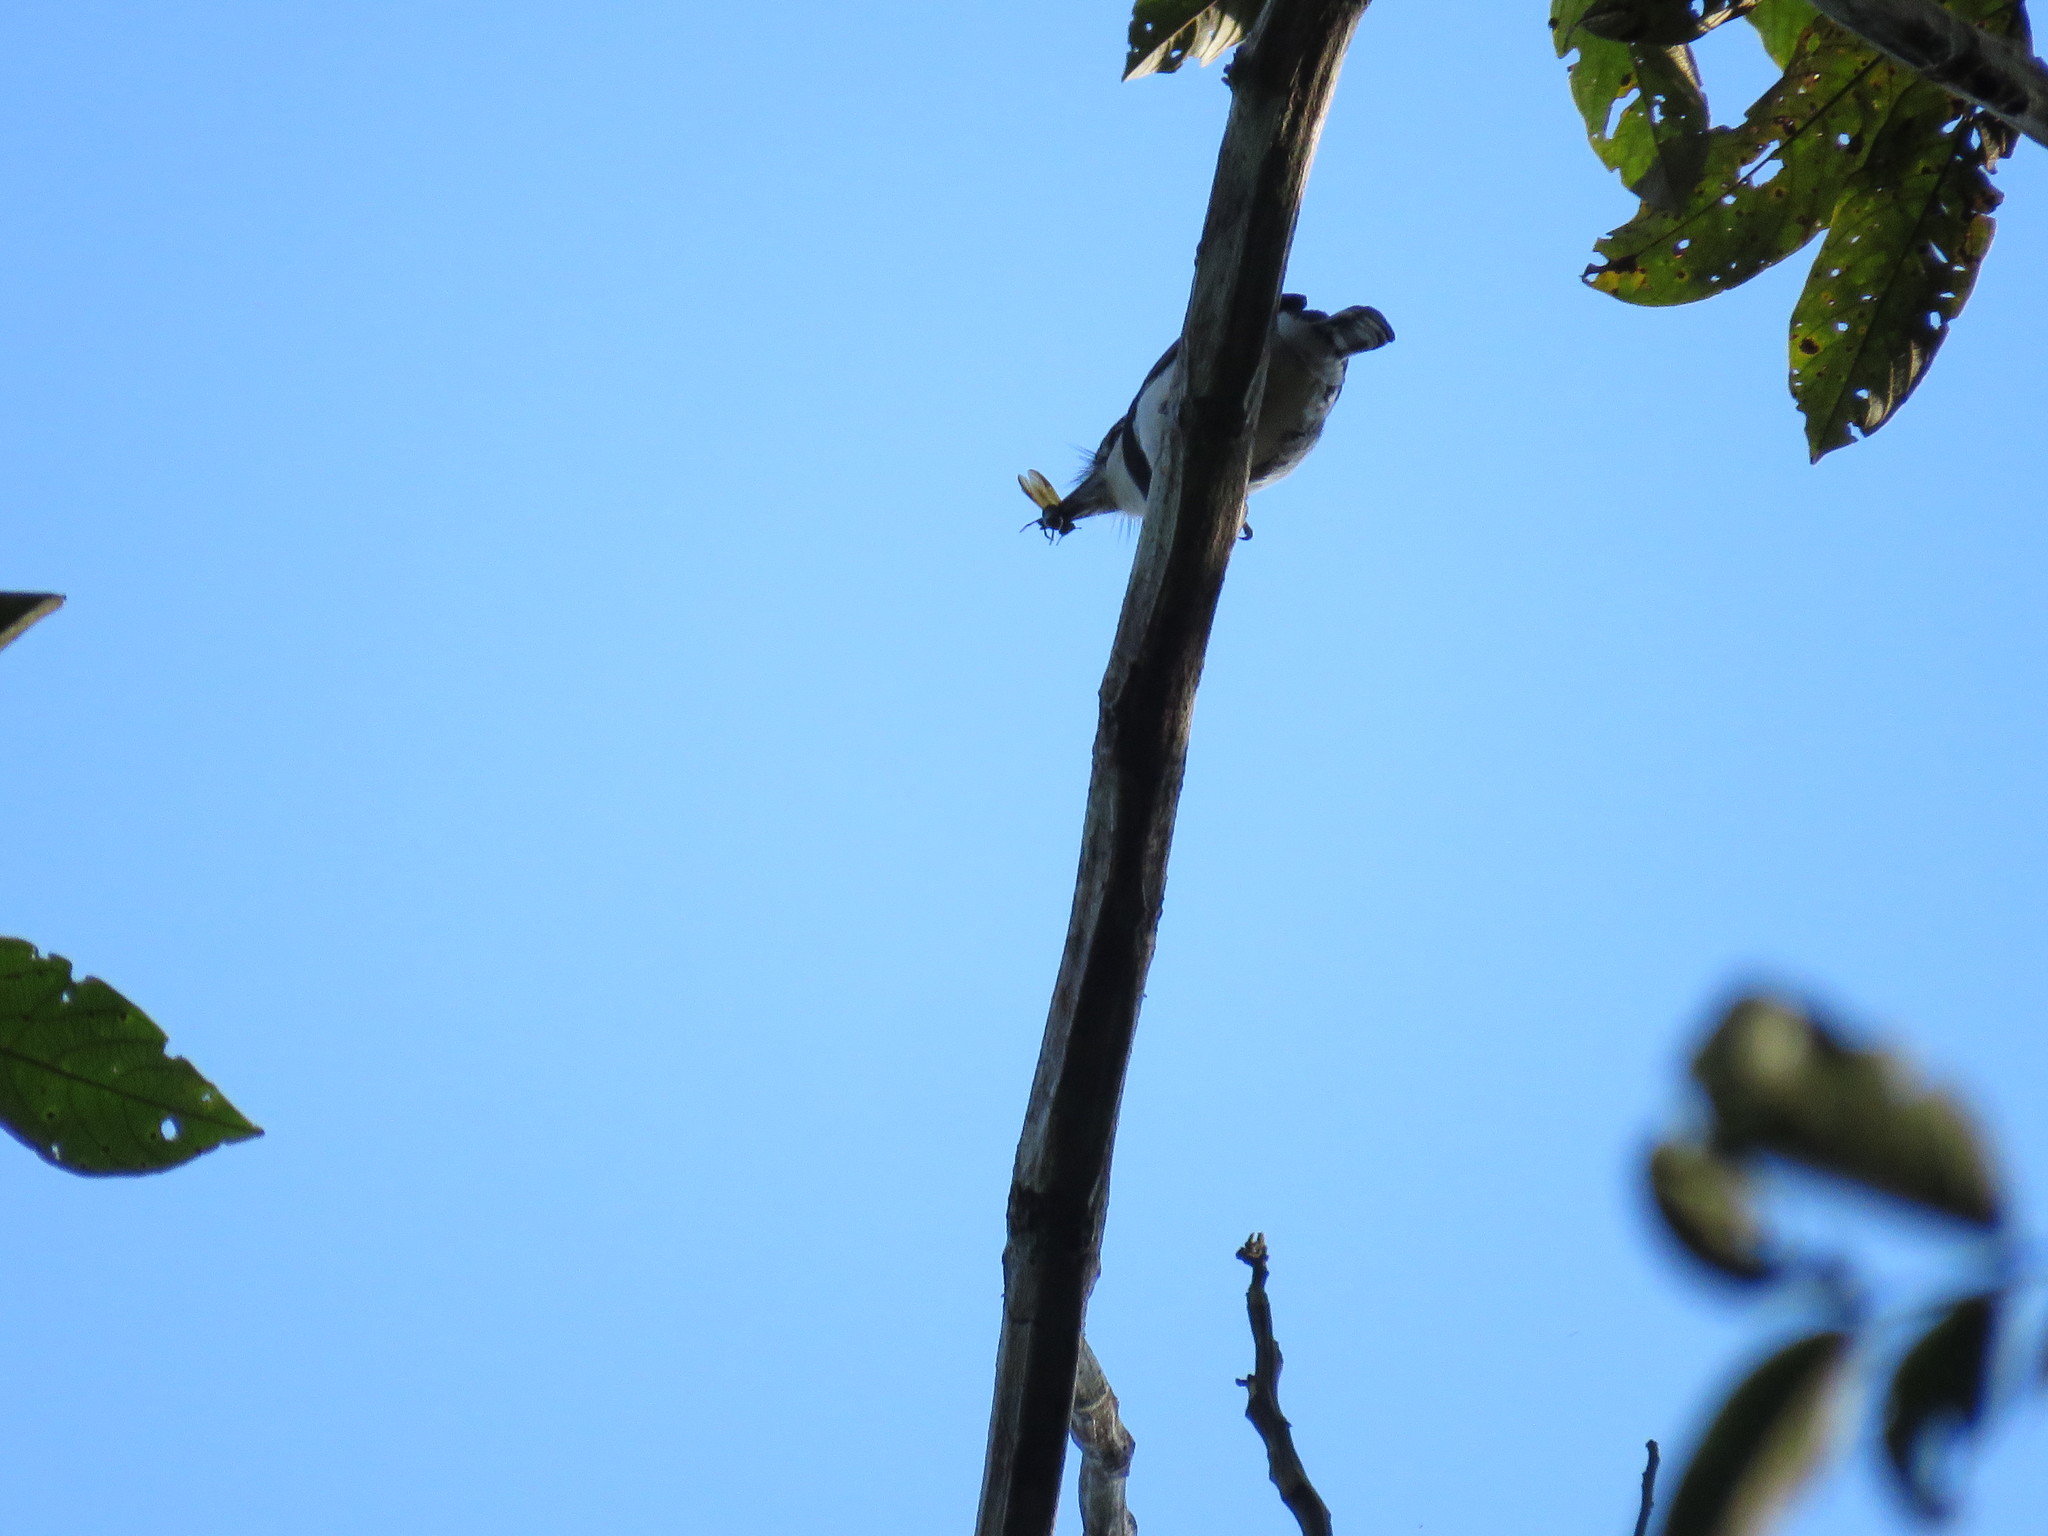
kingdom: Animalia
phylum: Chordata
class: Aves
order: Piciformes
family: Bucconidae
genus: Notharchus
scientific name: Notharchus hyperrhynchus
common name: White-necked puffbird
